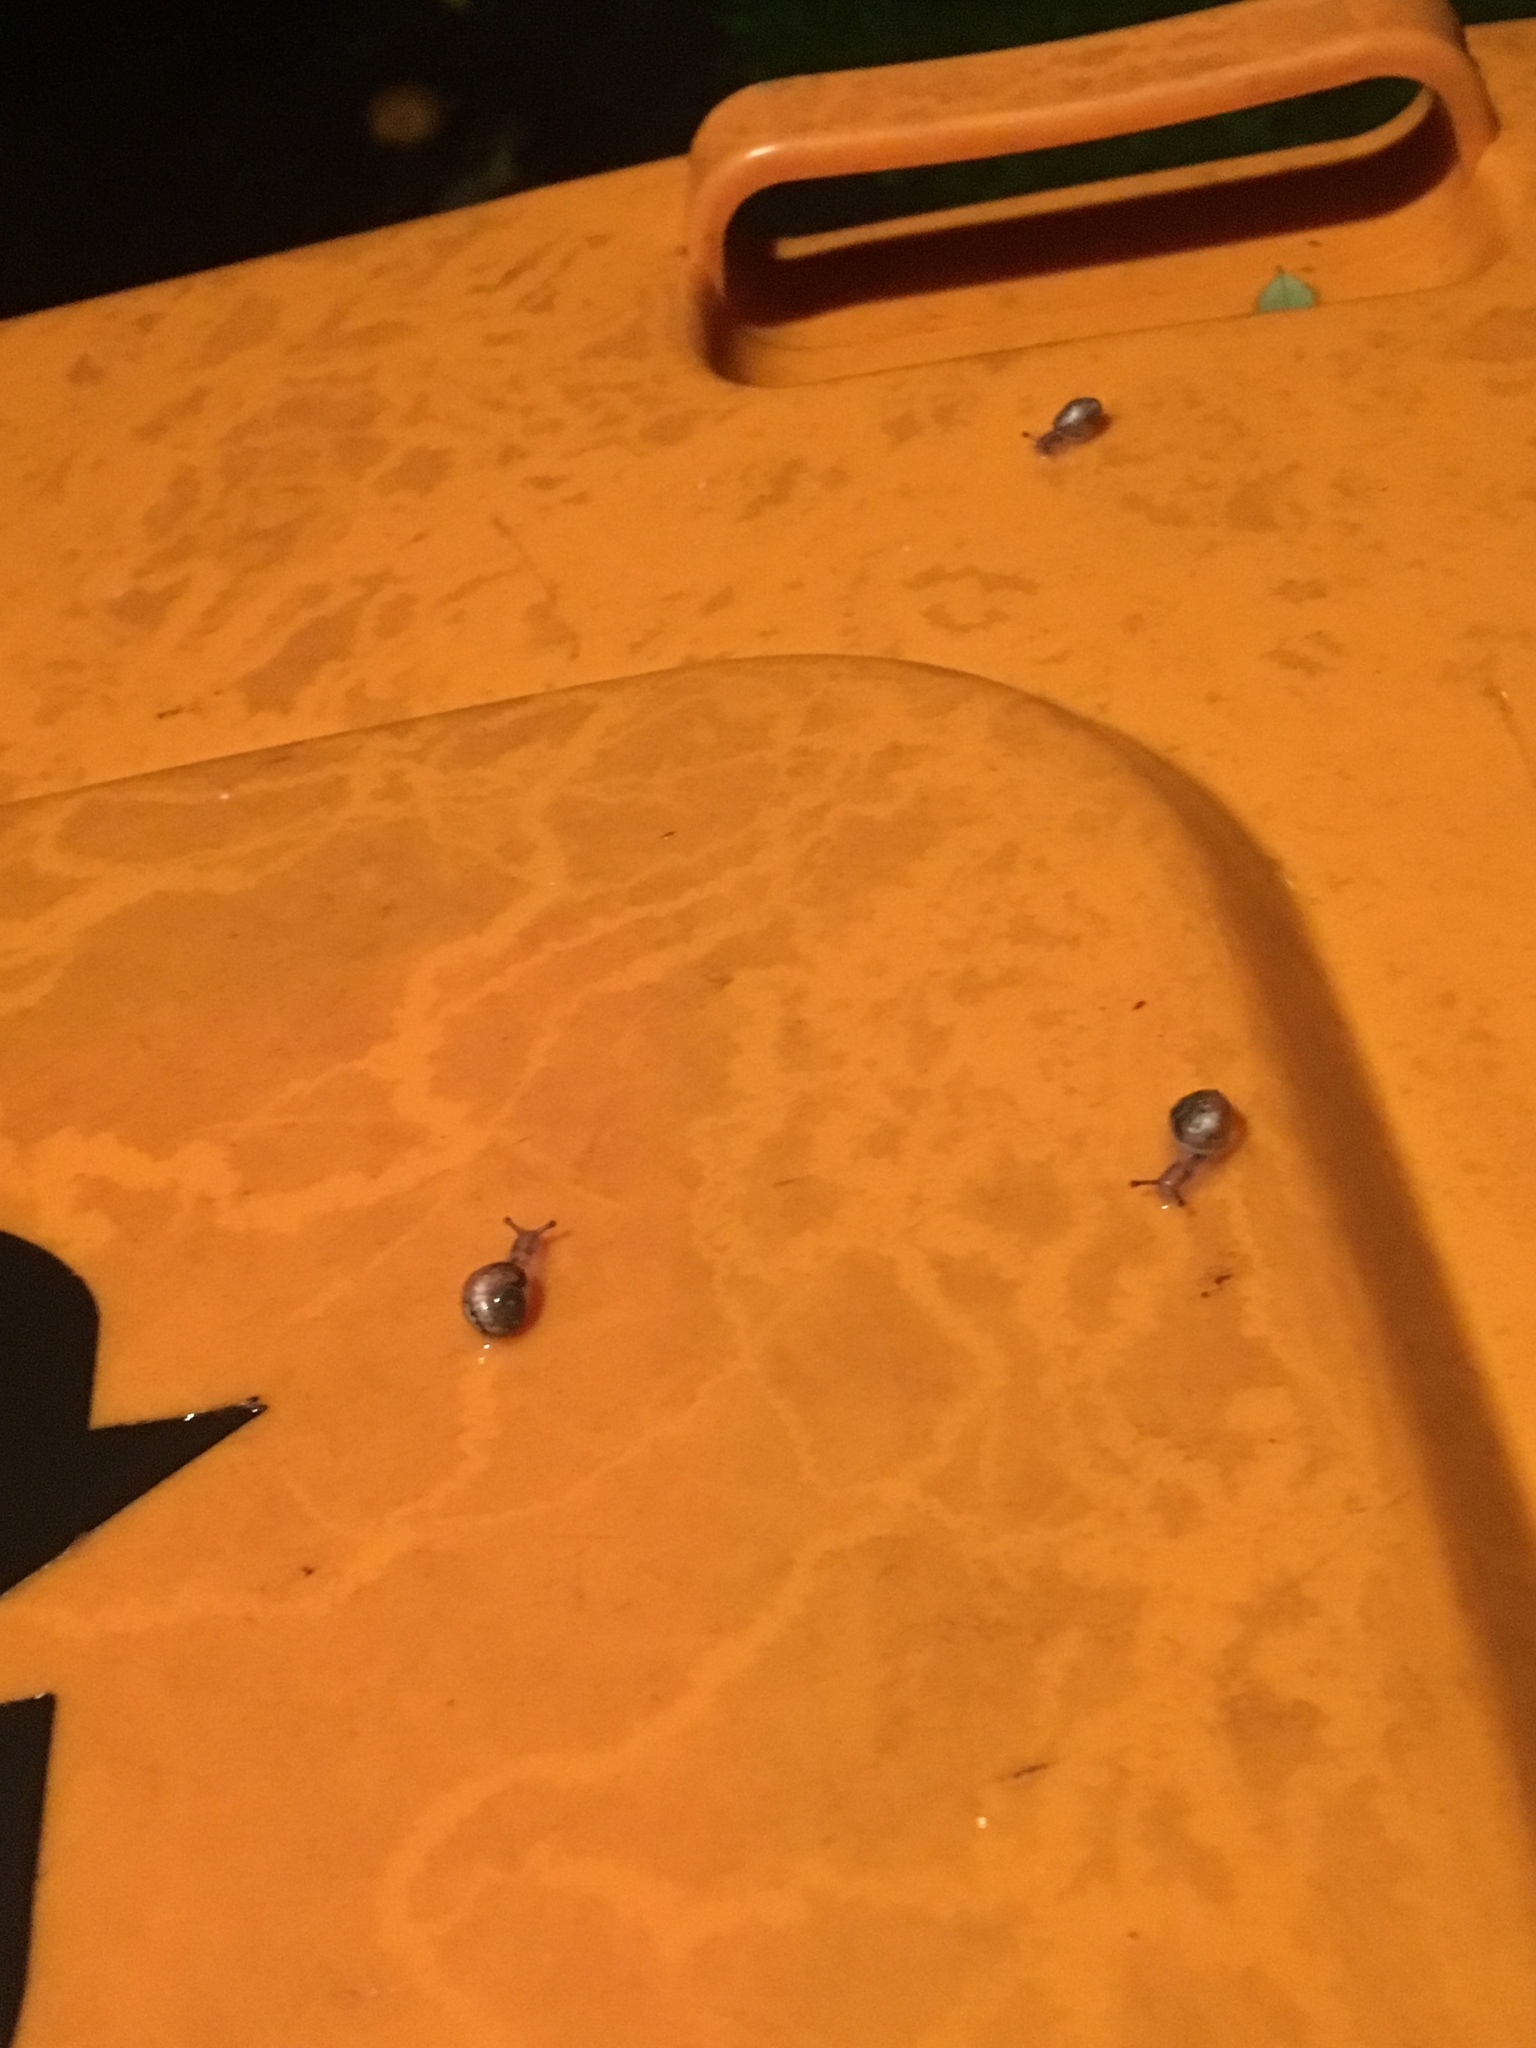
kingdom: Animalia
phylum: Mollusca
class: Gastropoda
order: Stylommatophora
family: Helicidae
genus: Cornu
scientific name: Cornu aspersum
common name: Brown garden snail
